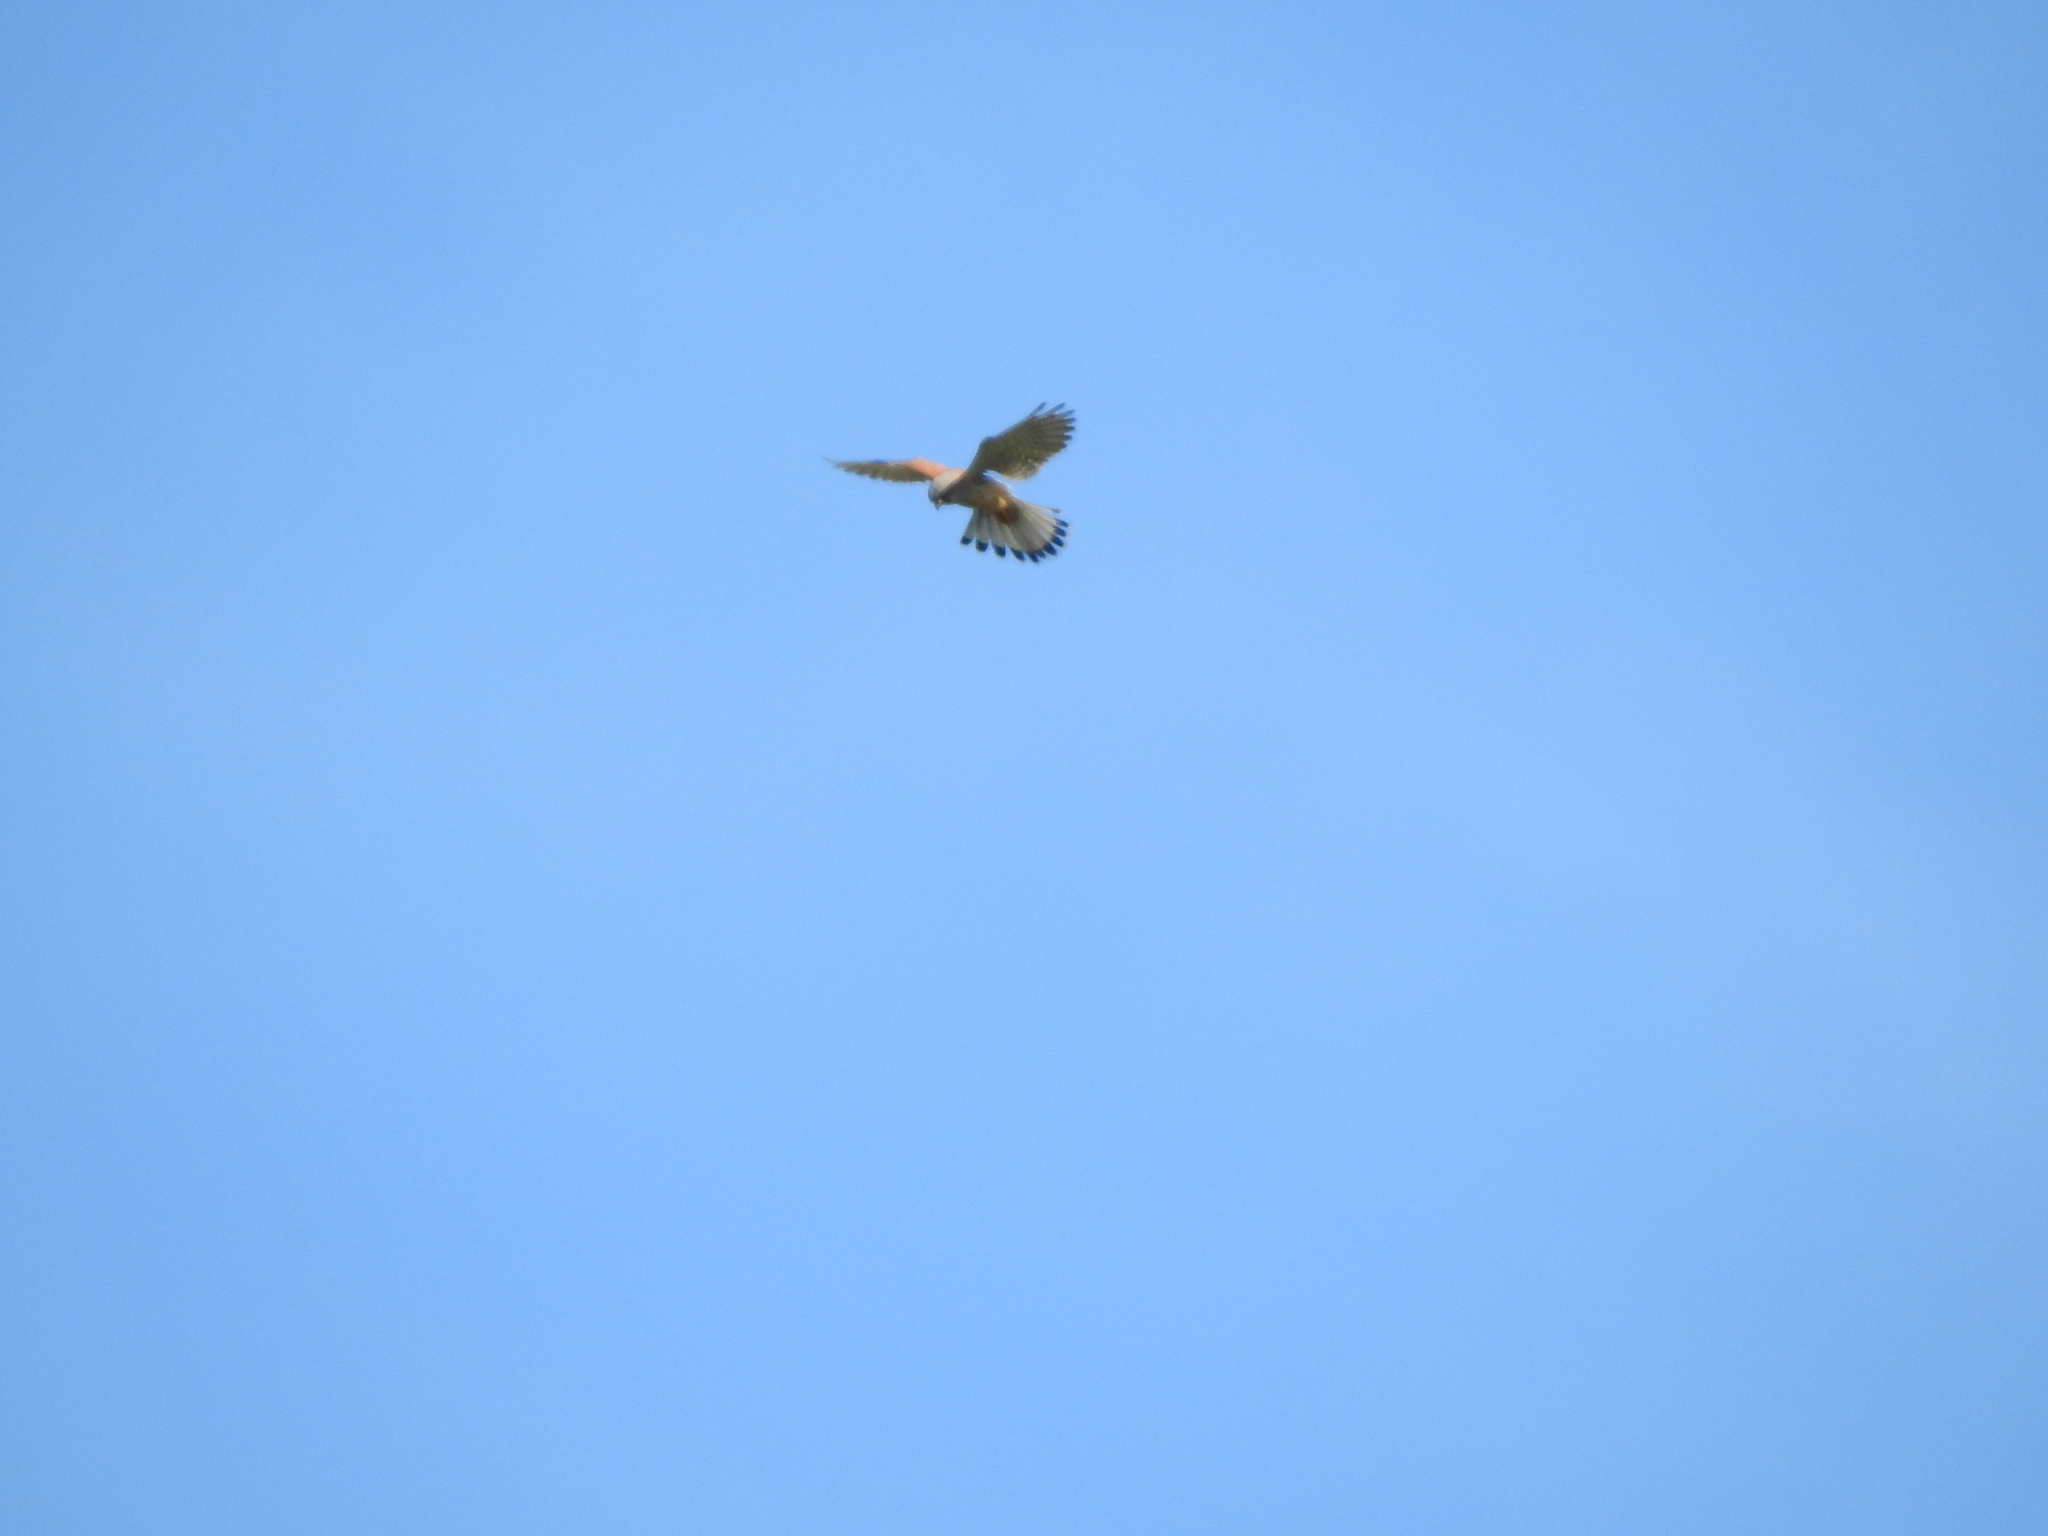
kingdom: Animalia
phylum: Chordata
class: Aves
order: Falconiformes
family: Falconidae
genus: Falco
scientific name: Falco tinnunculus
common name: Common kestrel
